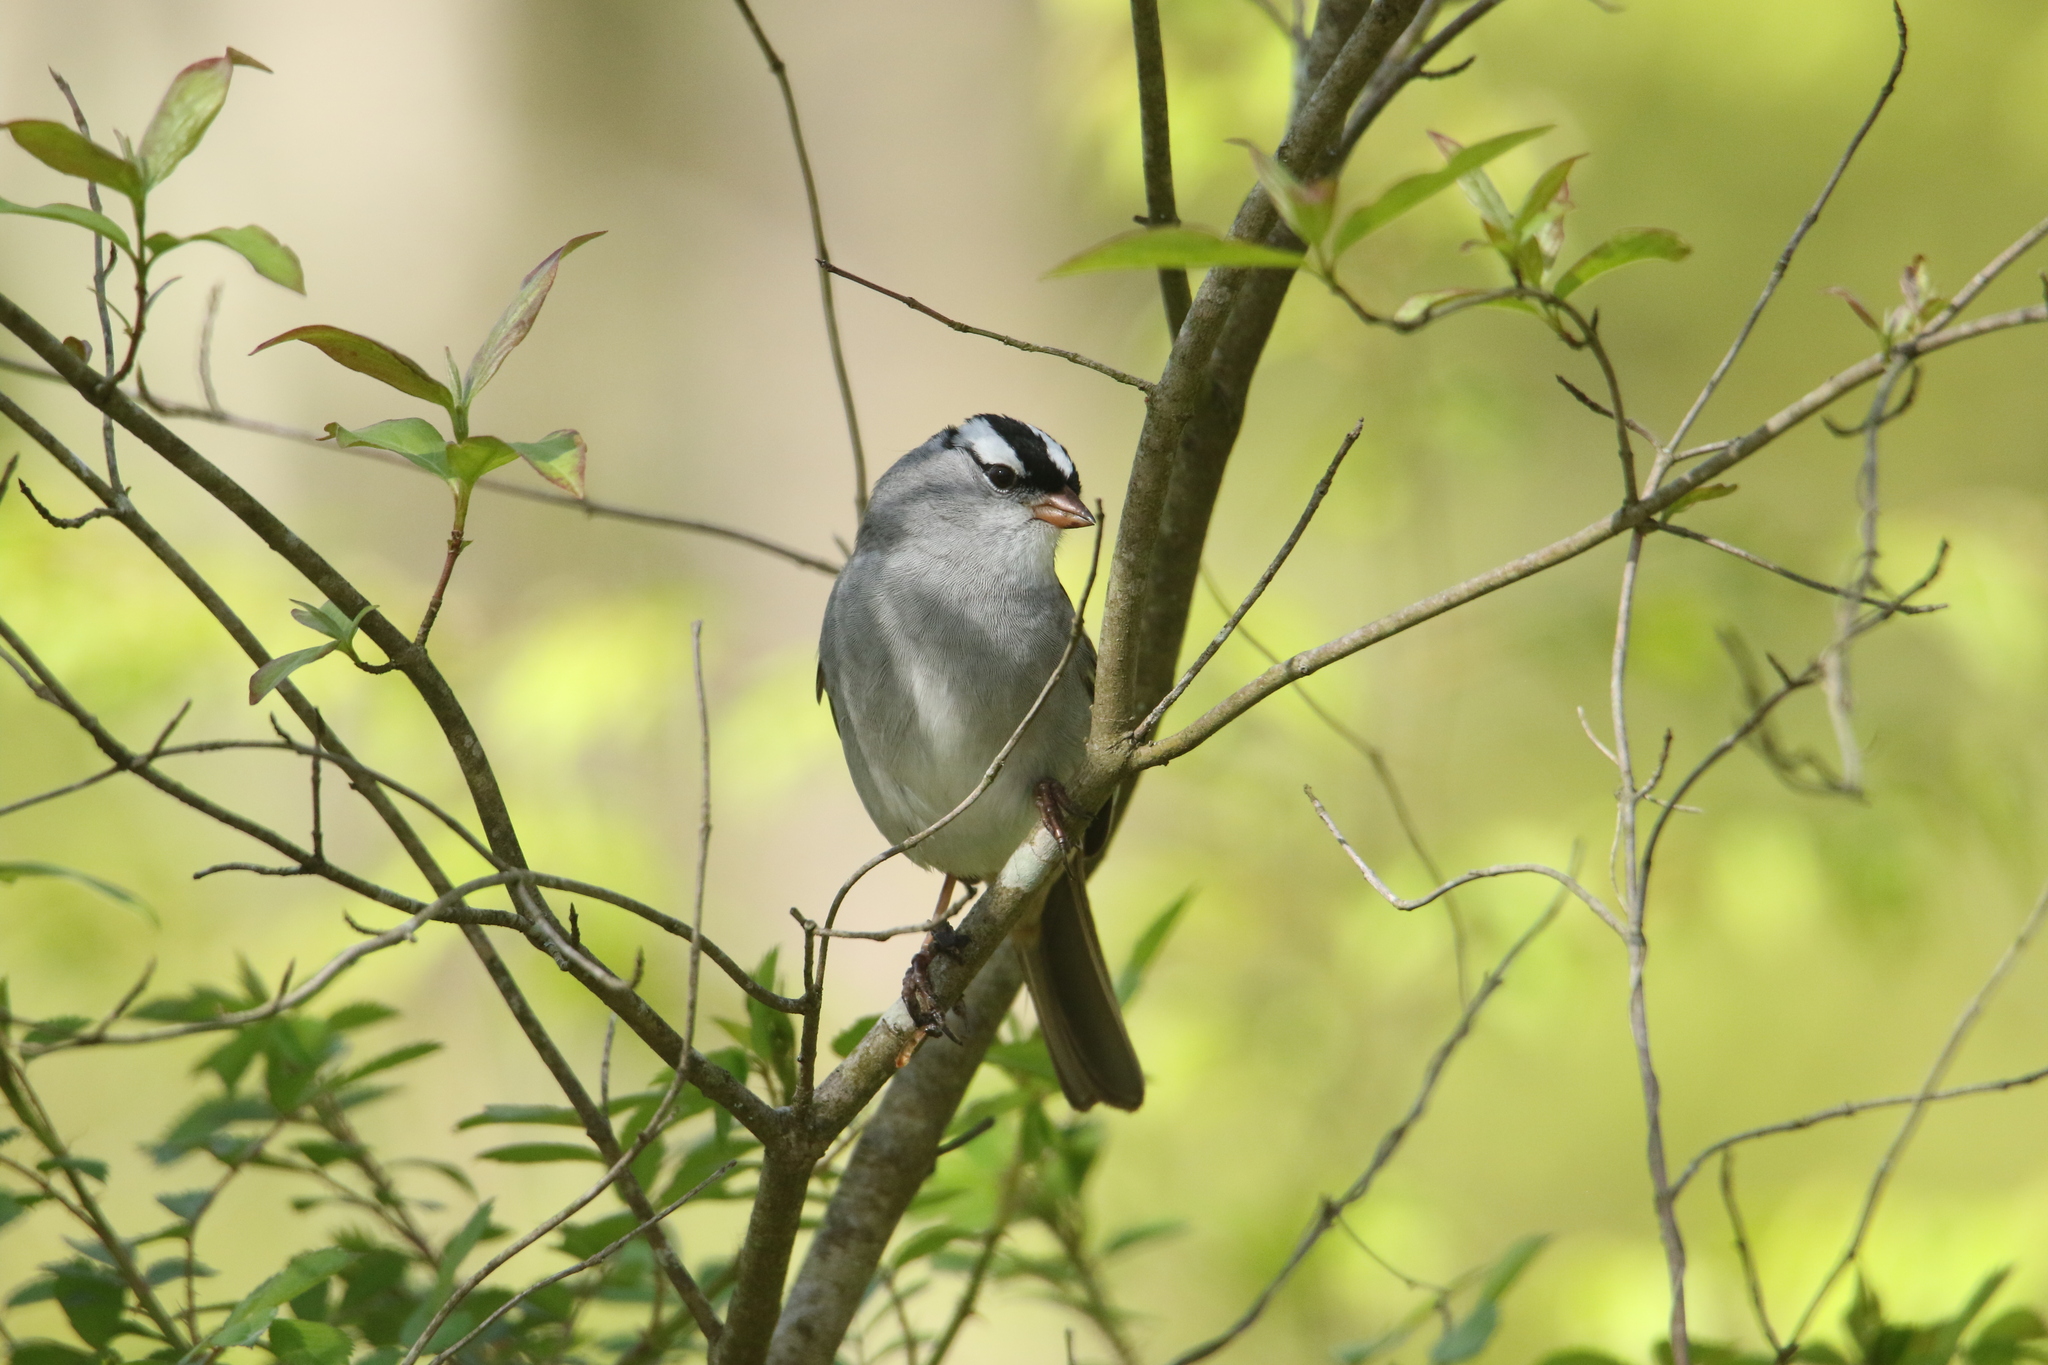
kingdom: Animalia
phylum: Chordata
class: Aves
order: Passeriformes
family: Passerellidae
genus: Zonotrichia
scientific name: Zonotrichia leucophrys
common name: White-crowned sparrow
